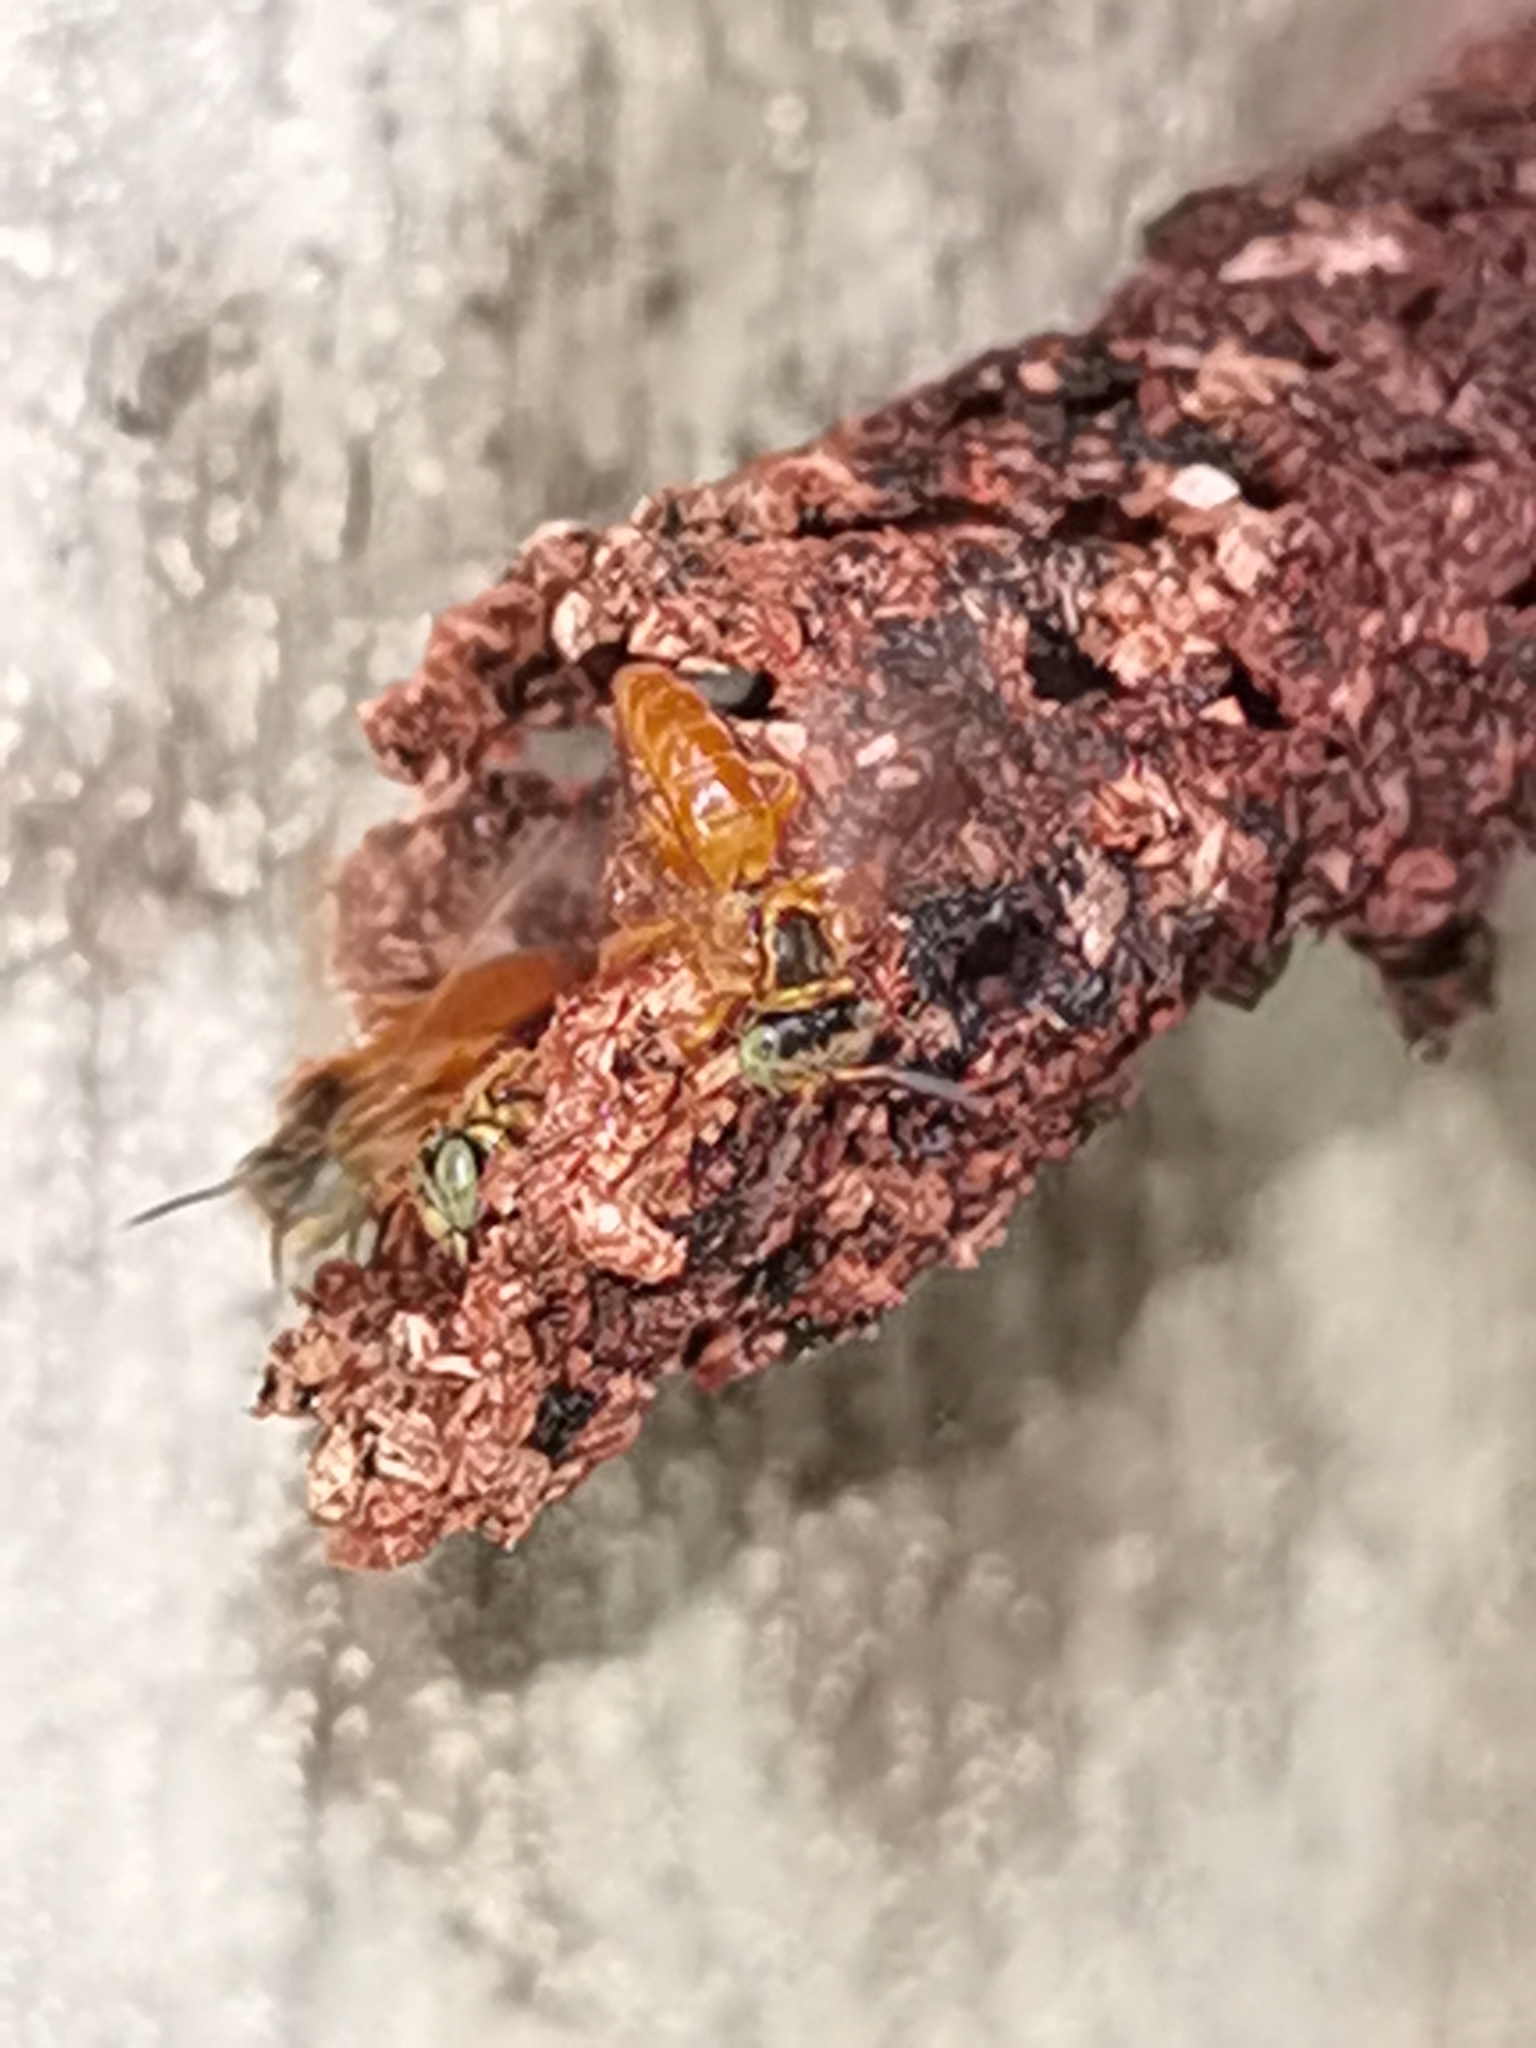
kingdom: Animalia
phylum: Arthropoda
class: Insecta
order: Hymenoptera
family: Apidae
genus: Tetragona
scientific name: Tetragona ziegleri
